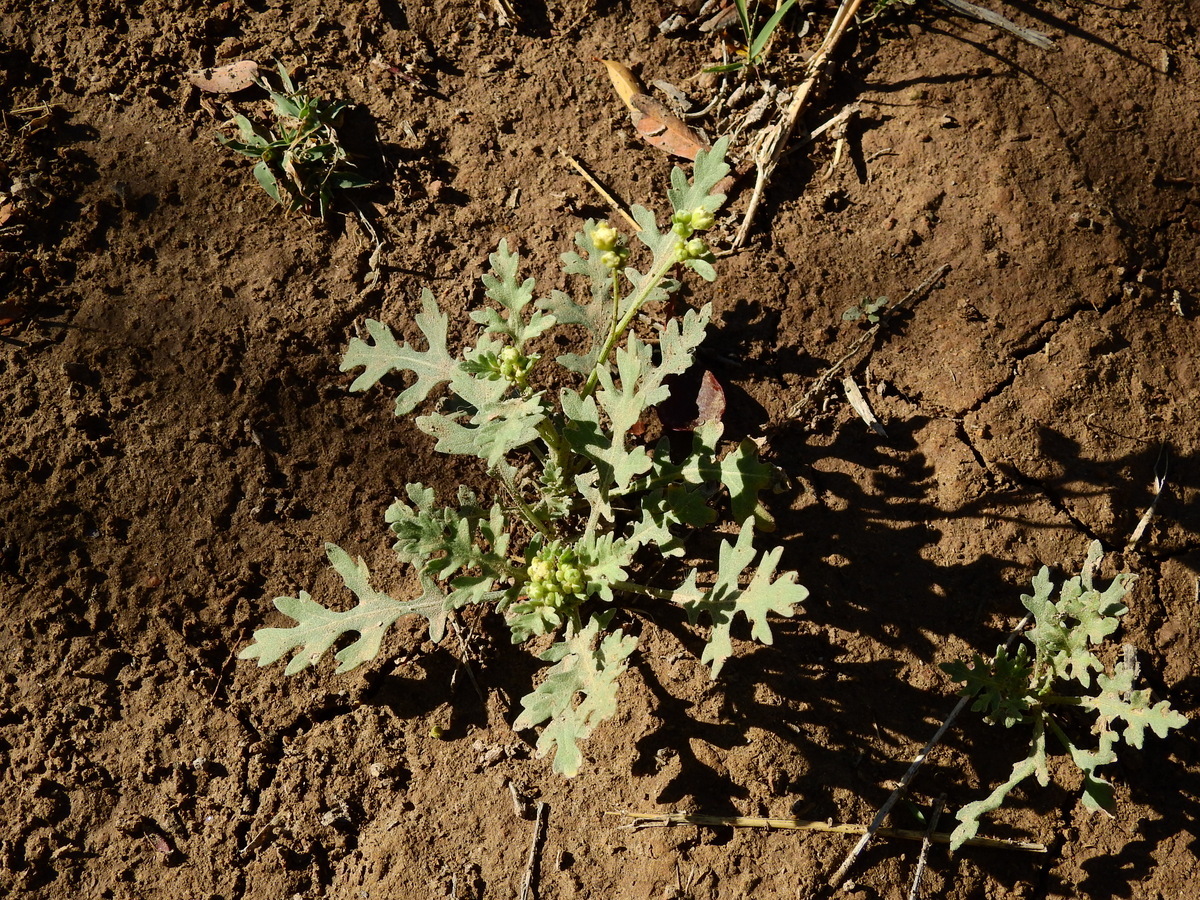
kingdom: Plantae
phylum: Tracheophyta
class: Magnoliopsida
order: Asterales
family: Asteraceae
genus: Parthenium
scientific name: Parthenium hysterophorus
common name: Santa maria feverfew
